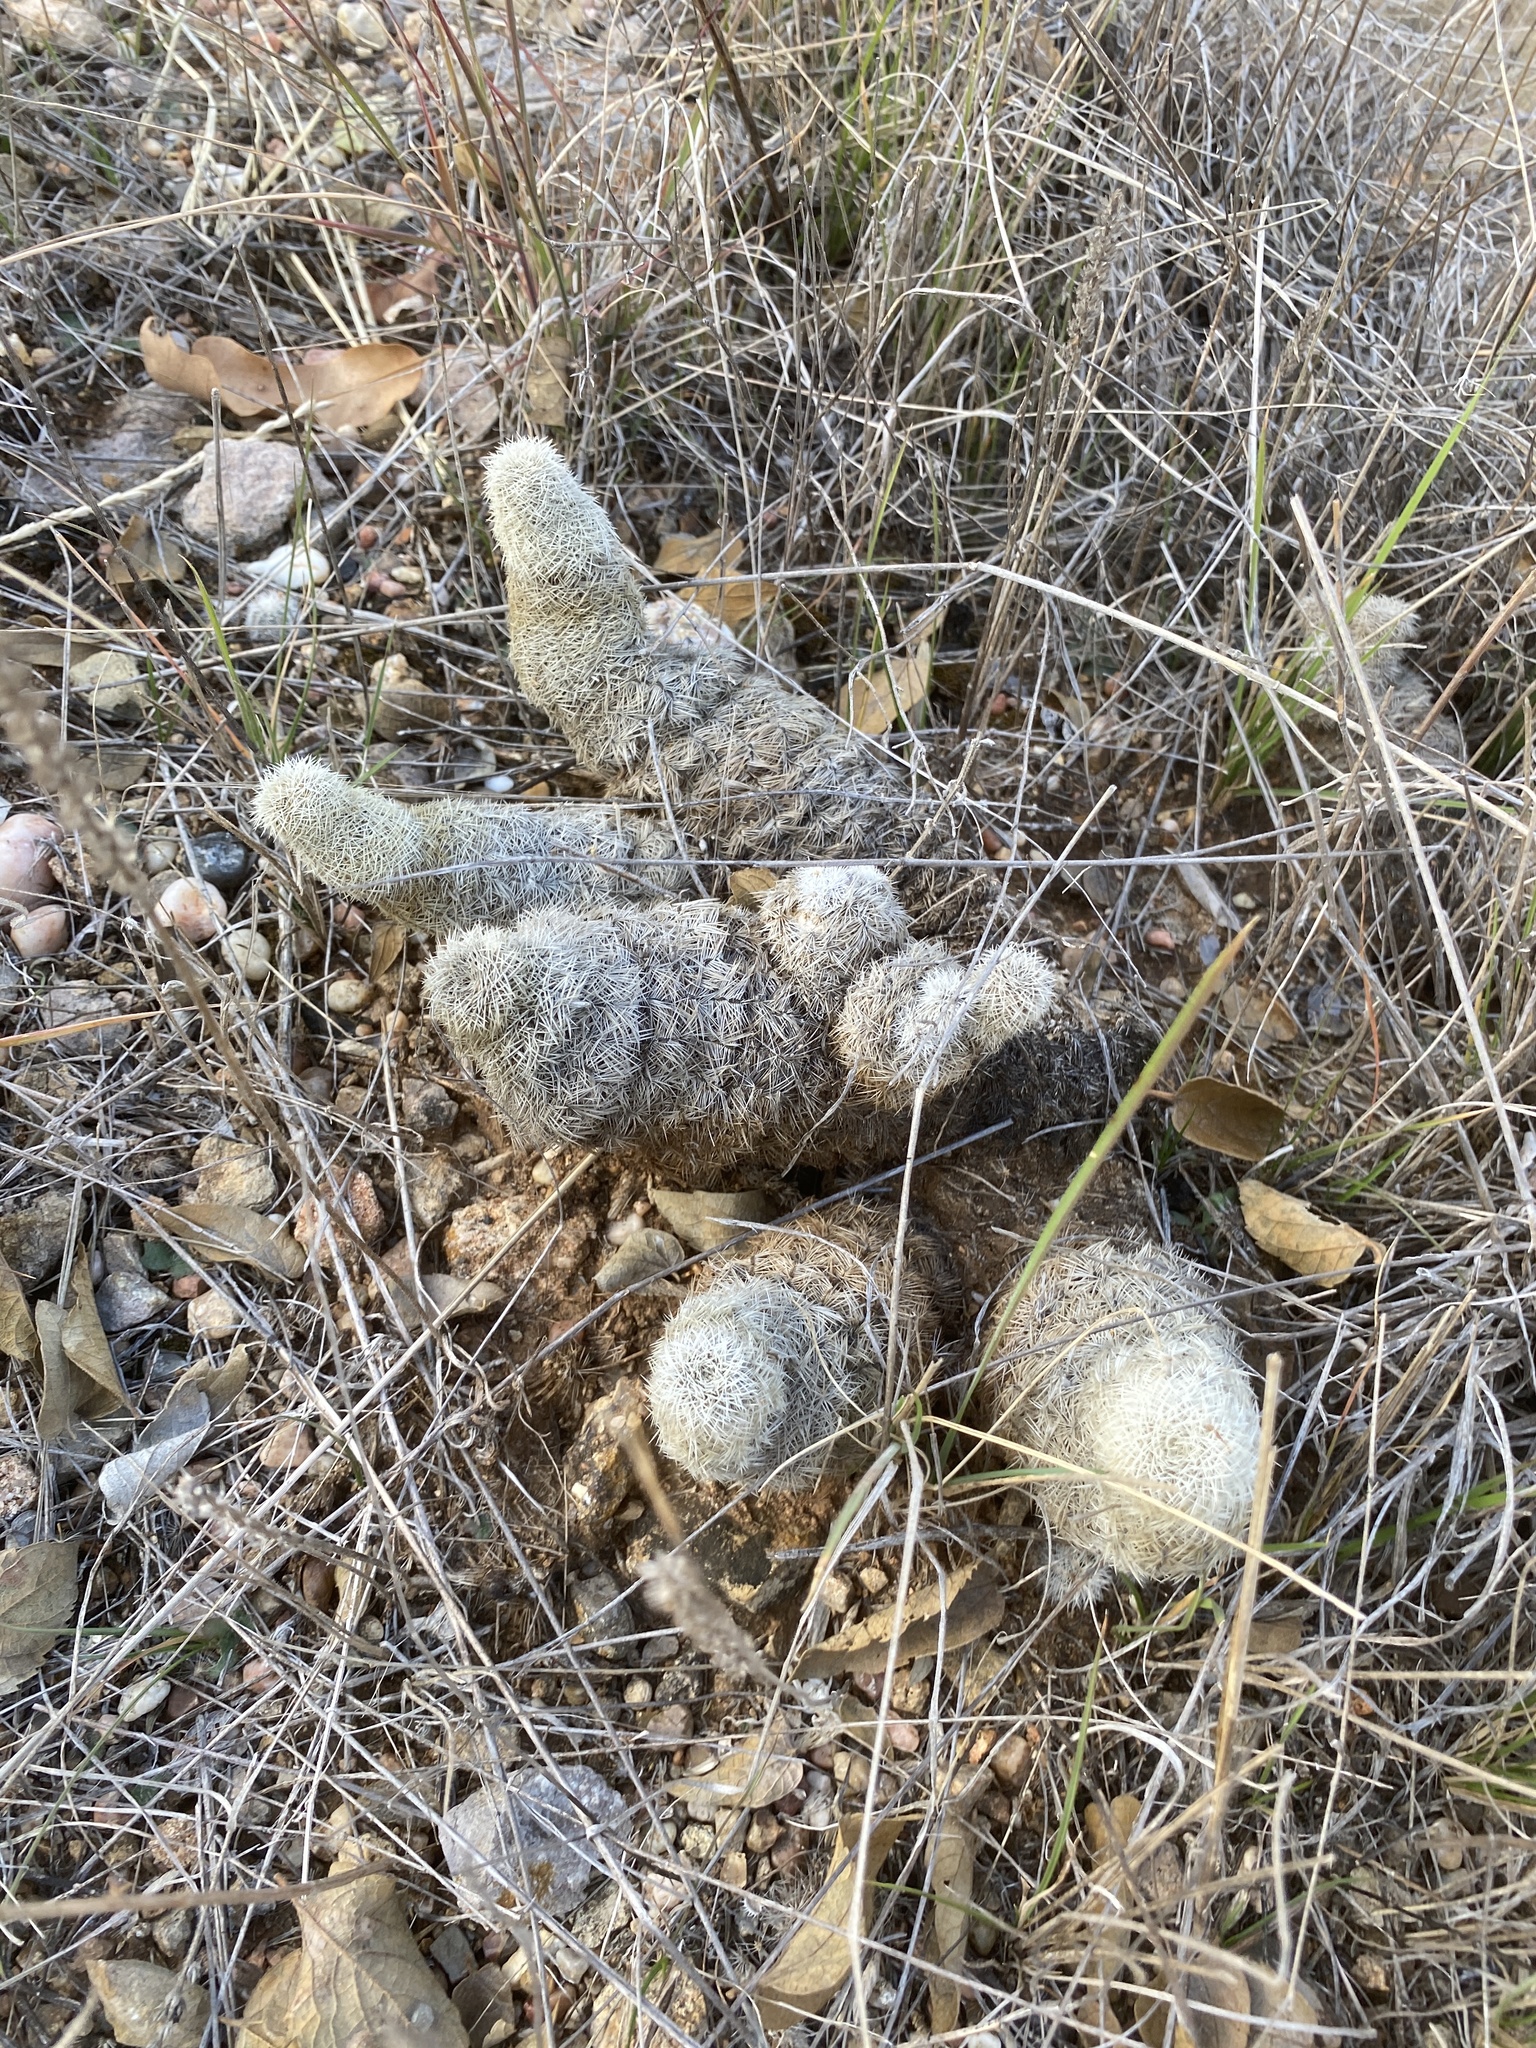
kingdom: Plantae
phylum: Tracheophyta
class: Magnoliopsida
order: Caryophyllales
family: Cactaceae
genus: Echinocereus
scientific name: Echinocereus reichenbachii
